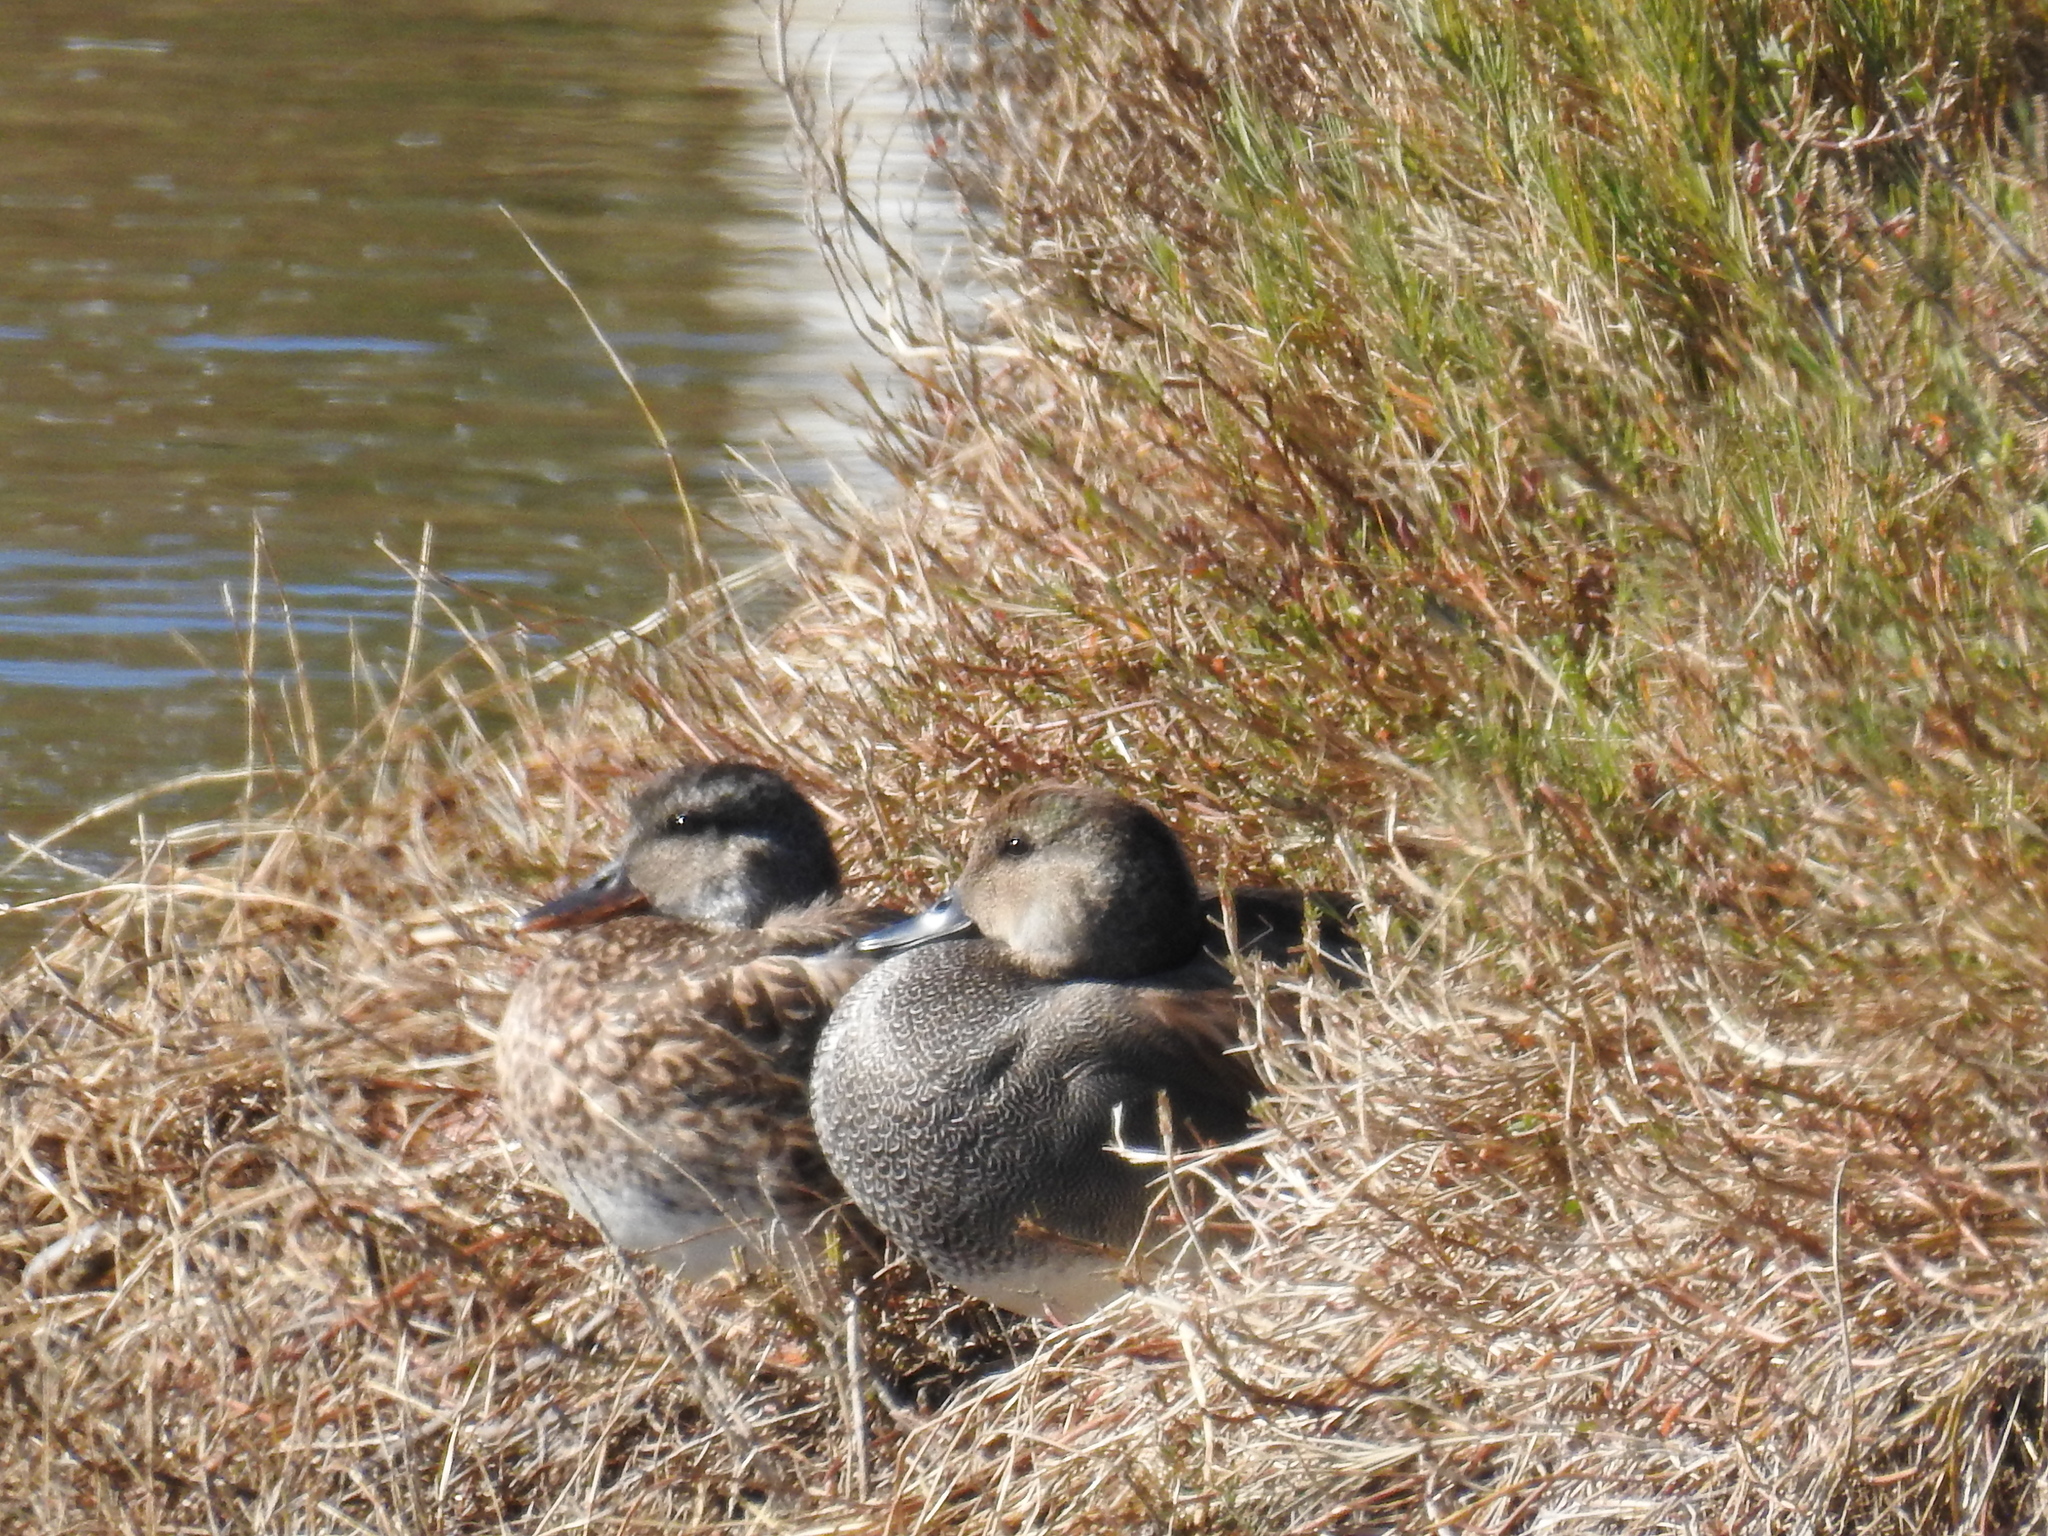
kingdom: Animalia
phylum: Chordata
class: Aves
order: Anseriformes
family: Anatidae
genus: Mareca
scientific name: Mareca strepera
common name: Gadwall
